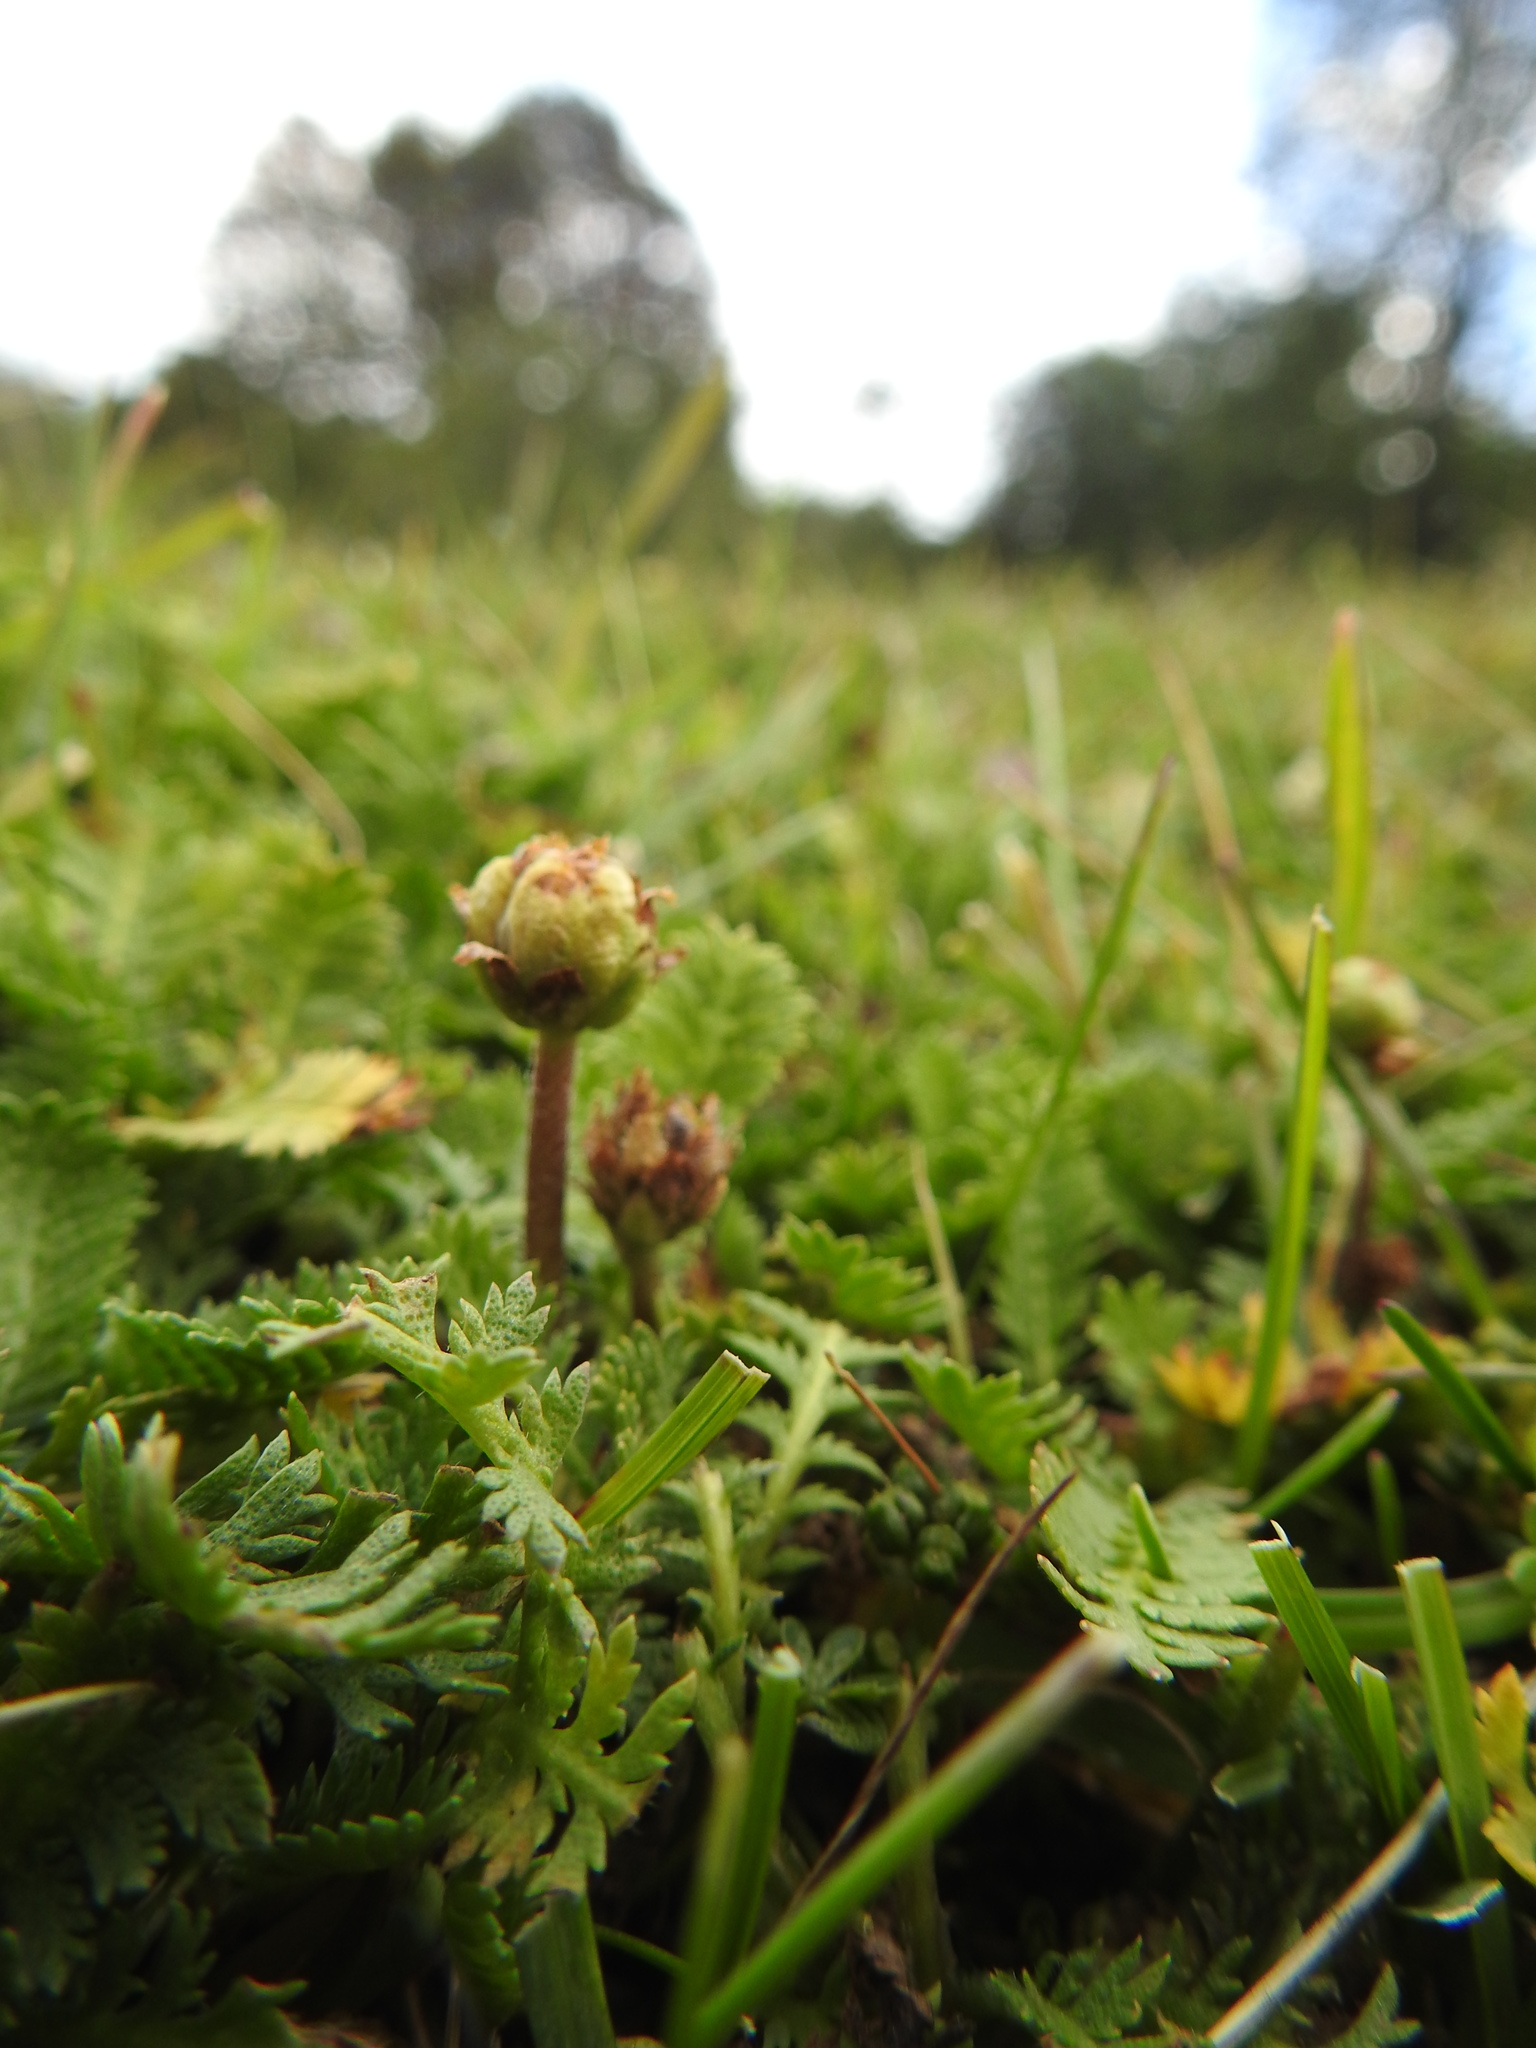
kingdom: Plantae
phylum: Tracheophyta
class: Magnoliopsida
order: Asterales
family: Asteraceae
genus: Leptinella
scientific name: Leptinella scariosa
